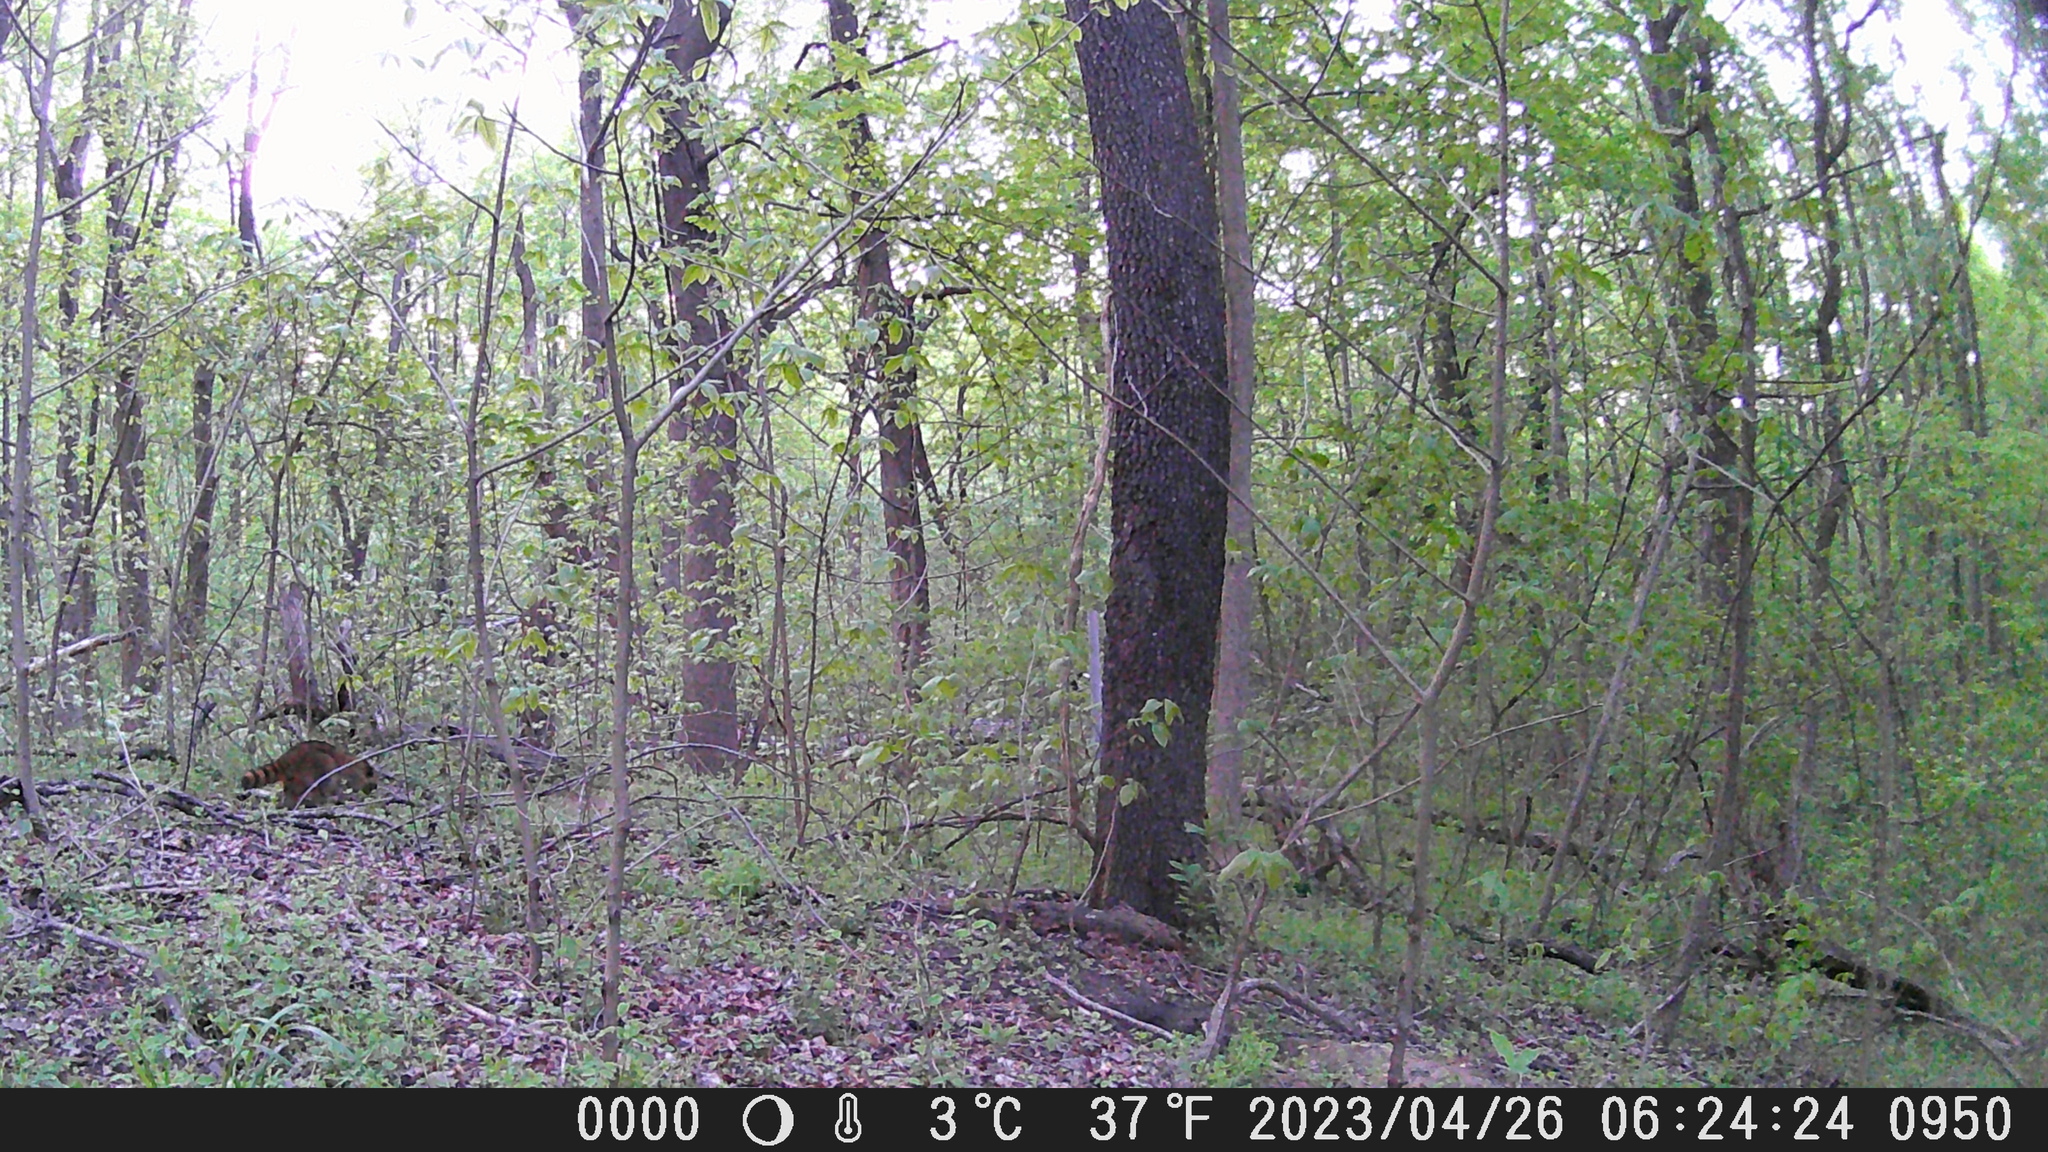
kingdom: Animalia
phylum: Chordata
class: Mammalia
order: Carnivora
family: Procyonidae
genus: Procyon
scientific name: Procyon lotor
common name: Raccoon
